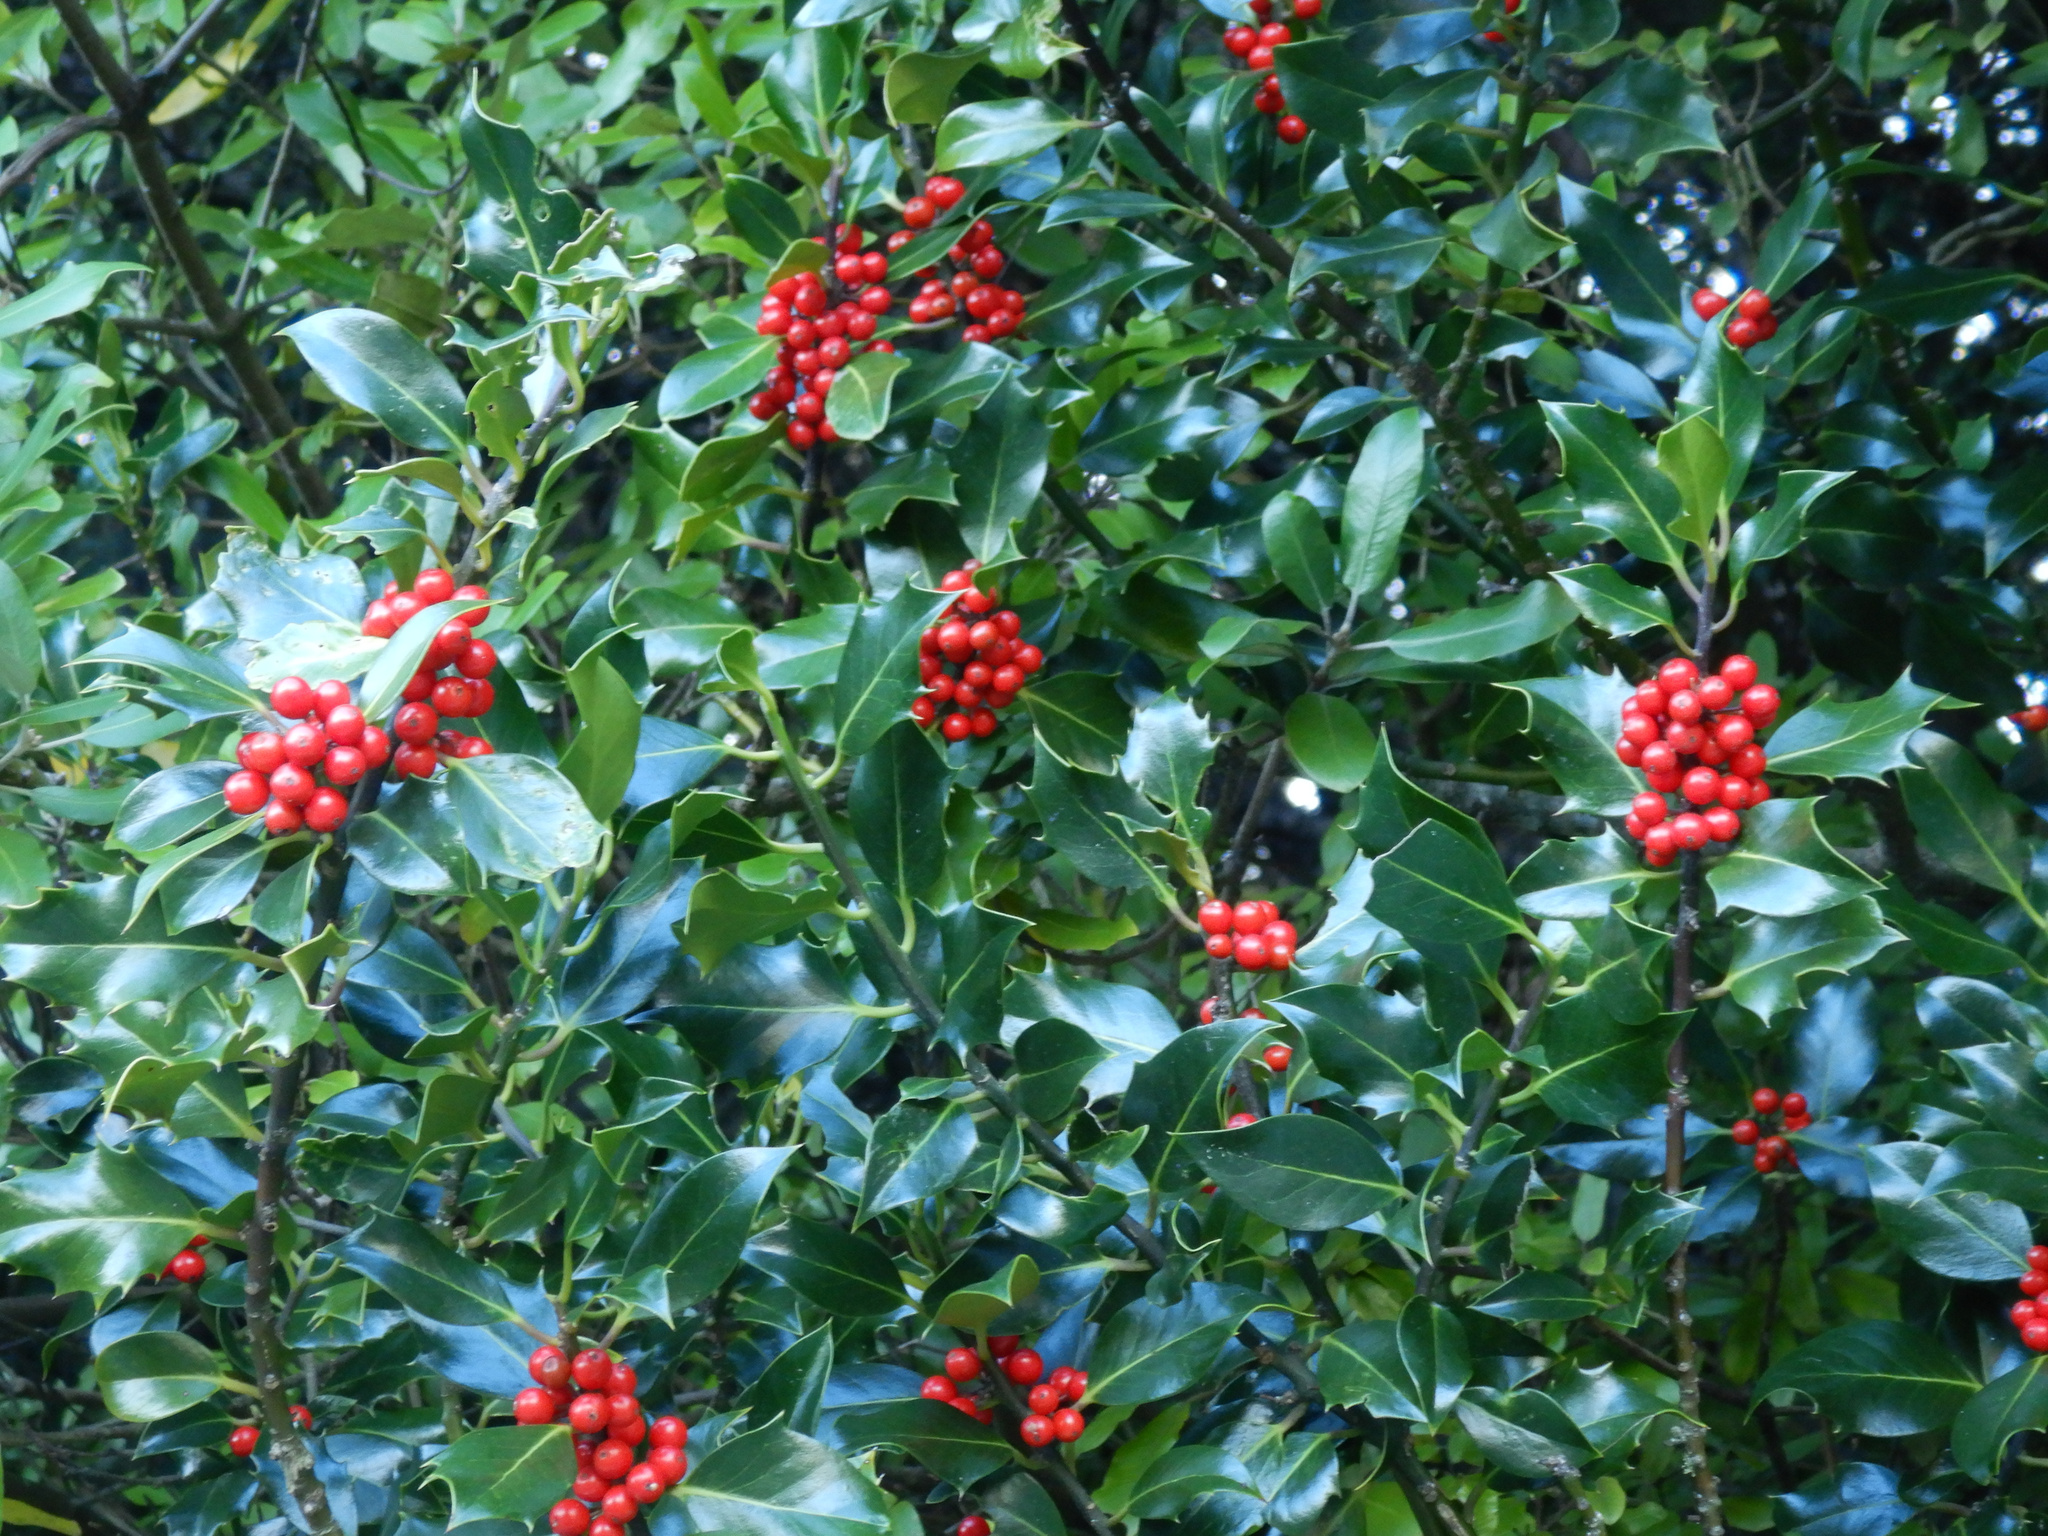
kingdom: Plantae
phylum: Tracheophyta
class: Magnoliopsida
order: Aquifoliales
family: Aquifoliaceae
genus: Ilex
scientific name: Ilex aquifolium
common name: English holly
